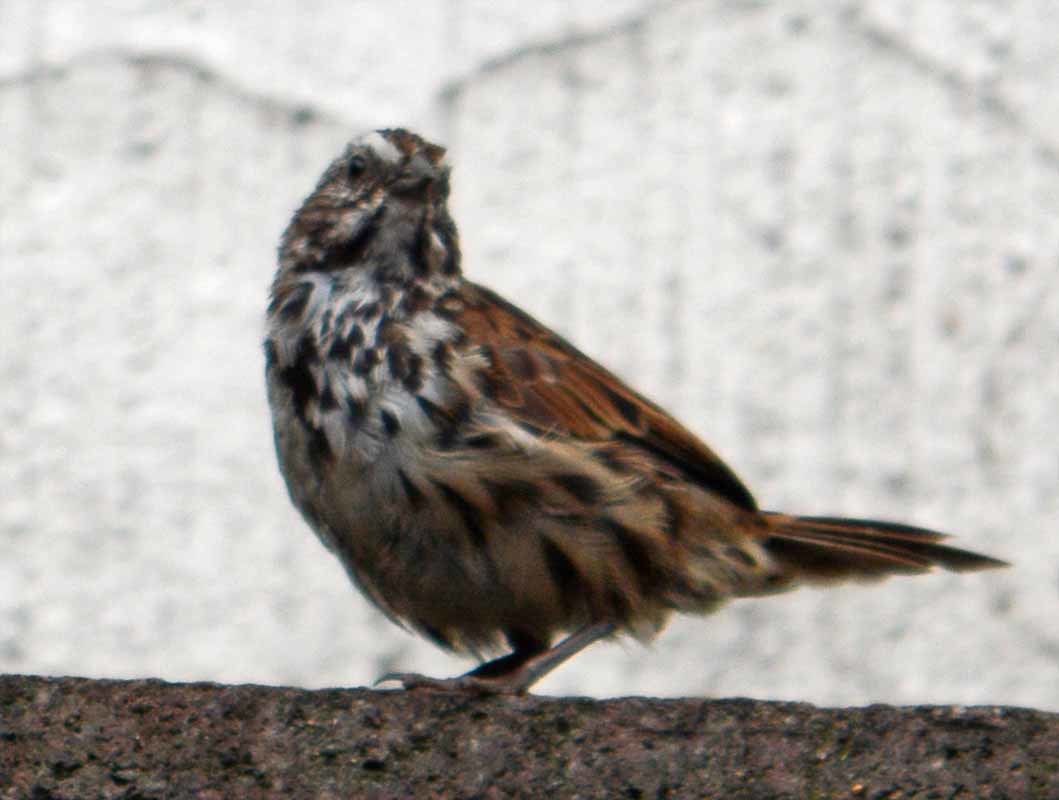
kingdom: Animalia
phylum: Chordata
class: Aves
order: Passeriformes
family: Passerellidae
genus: Melospiza
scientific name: Melospiza melodia
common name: Song sparrow
